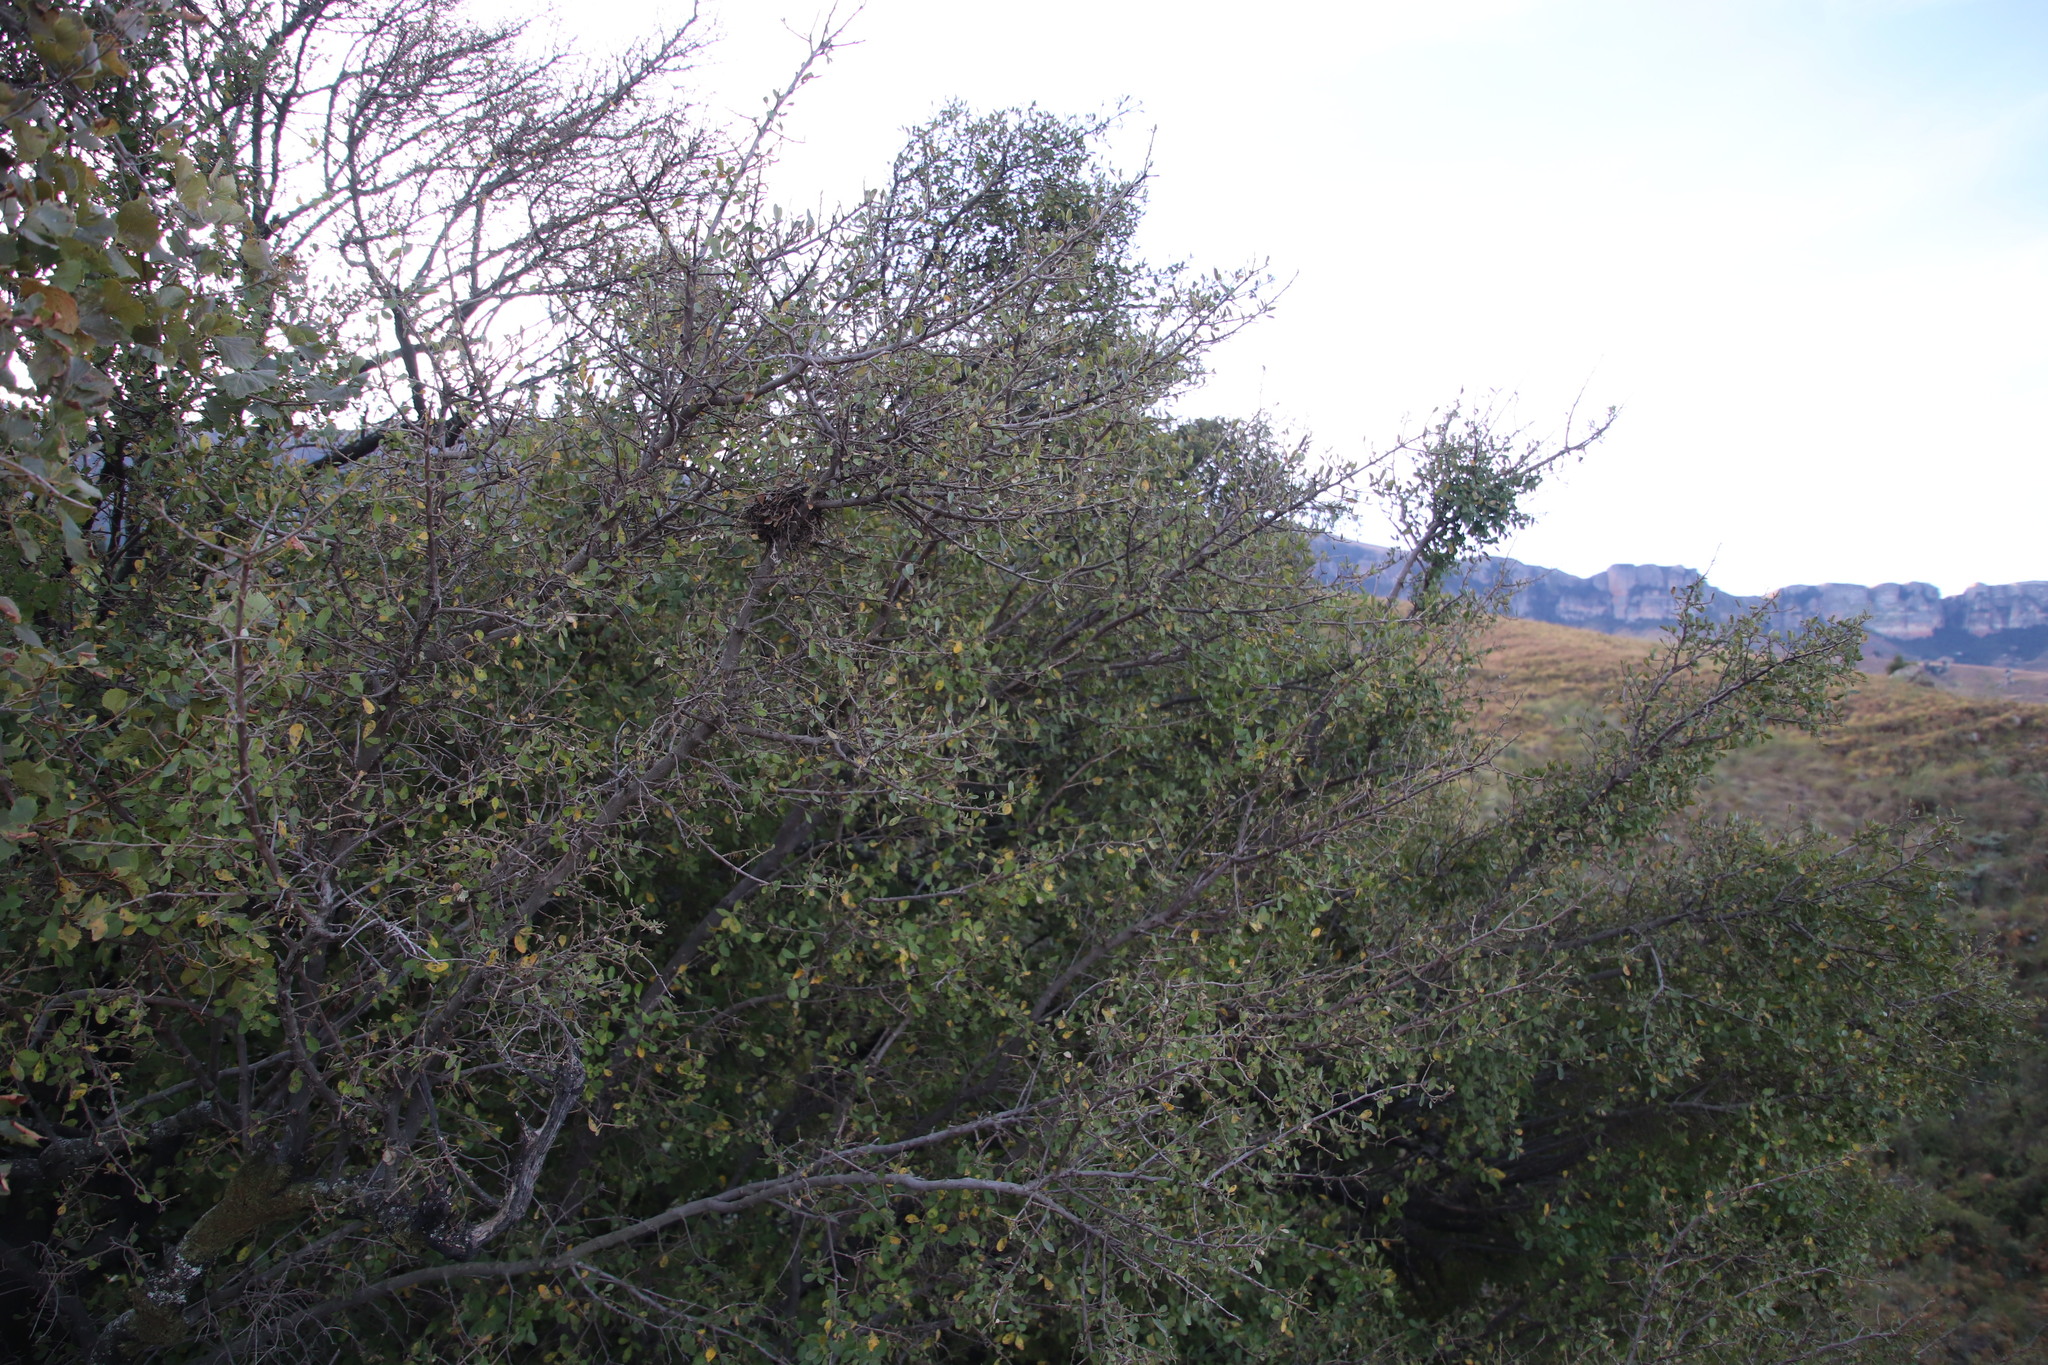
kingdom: Plantae
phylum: Tracheophyta
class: Magnoliopsida
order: Ericales
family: Ebenaceae
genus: Diospyros
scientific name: Diospyros lycioides
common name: Red star apple
